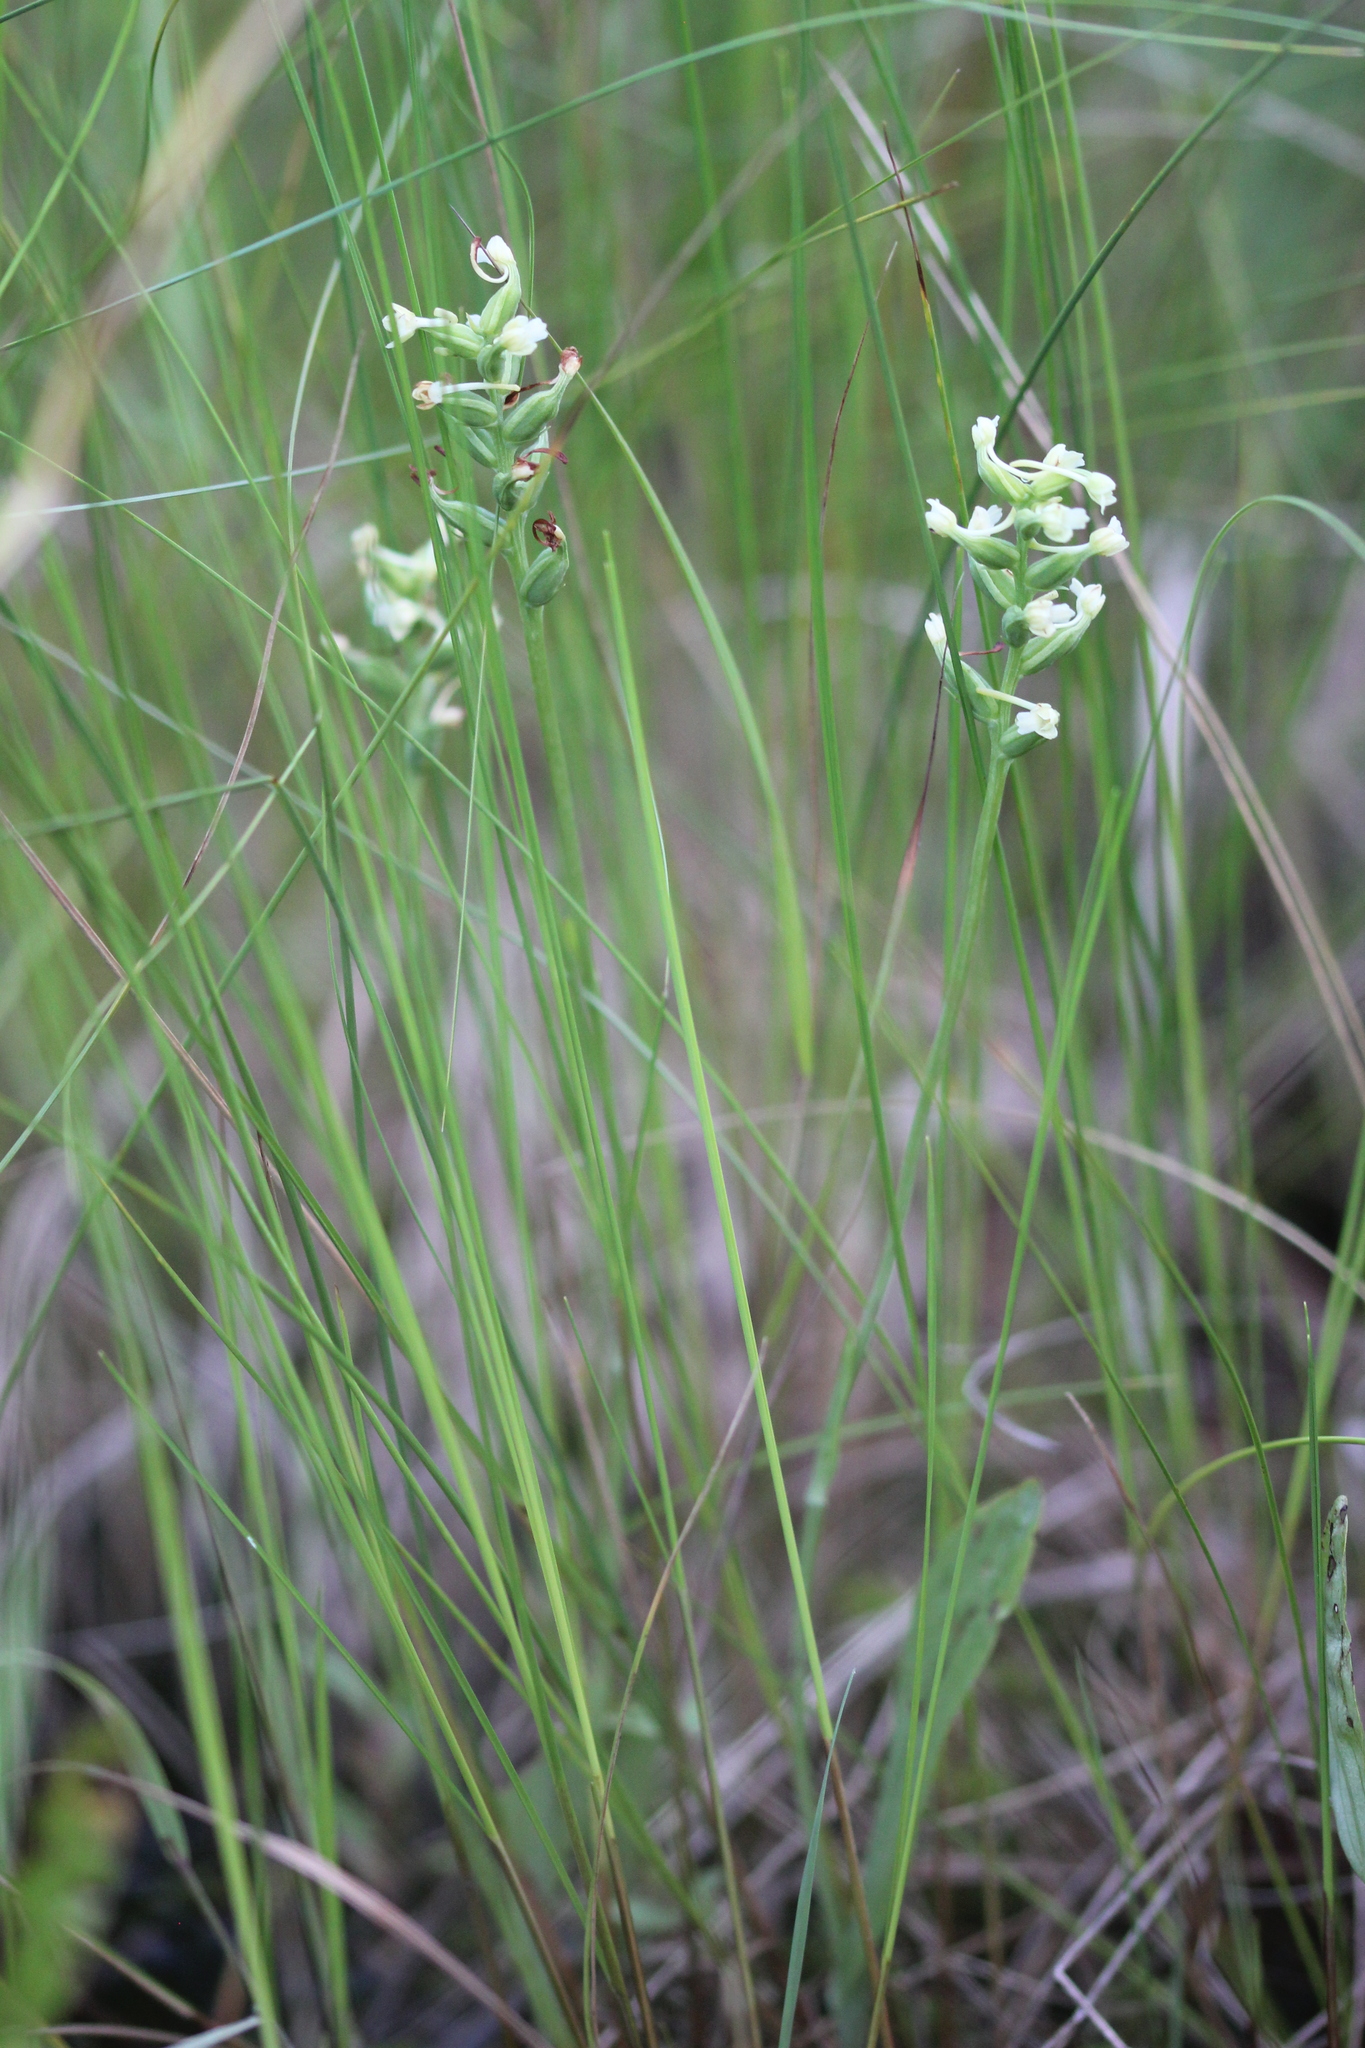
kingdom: Plantae
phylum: Tracheophyta
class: Liliopsida
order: Asparagales
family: Orchidaceae
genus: Platanthera
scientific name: Platanthera clavellata
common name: Club-spur orchid
